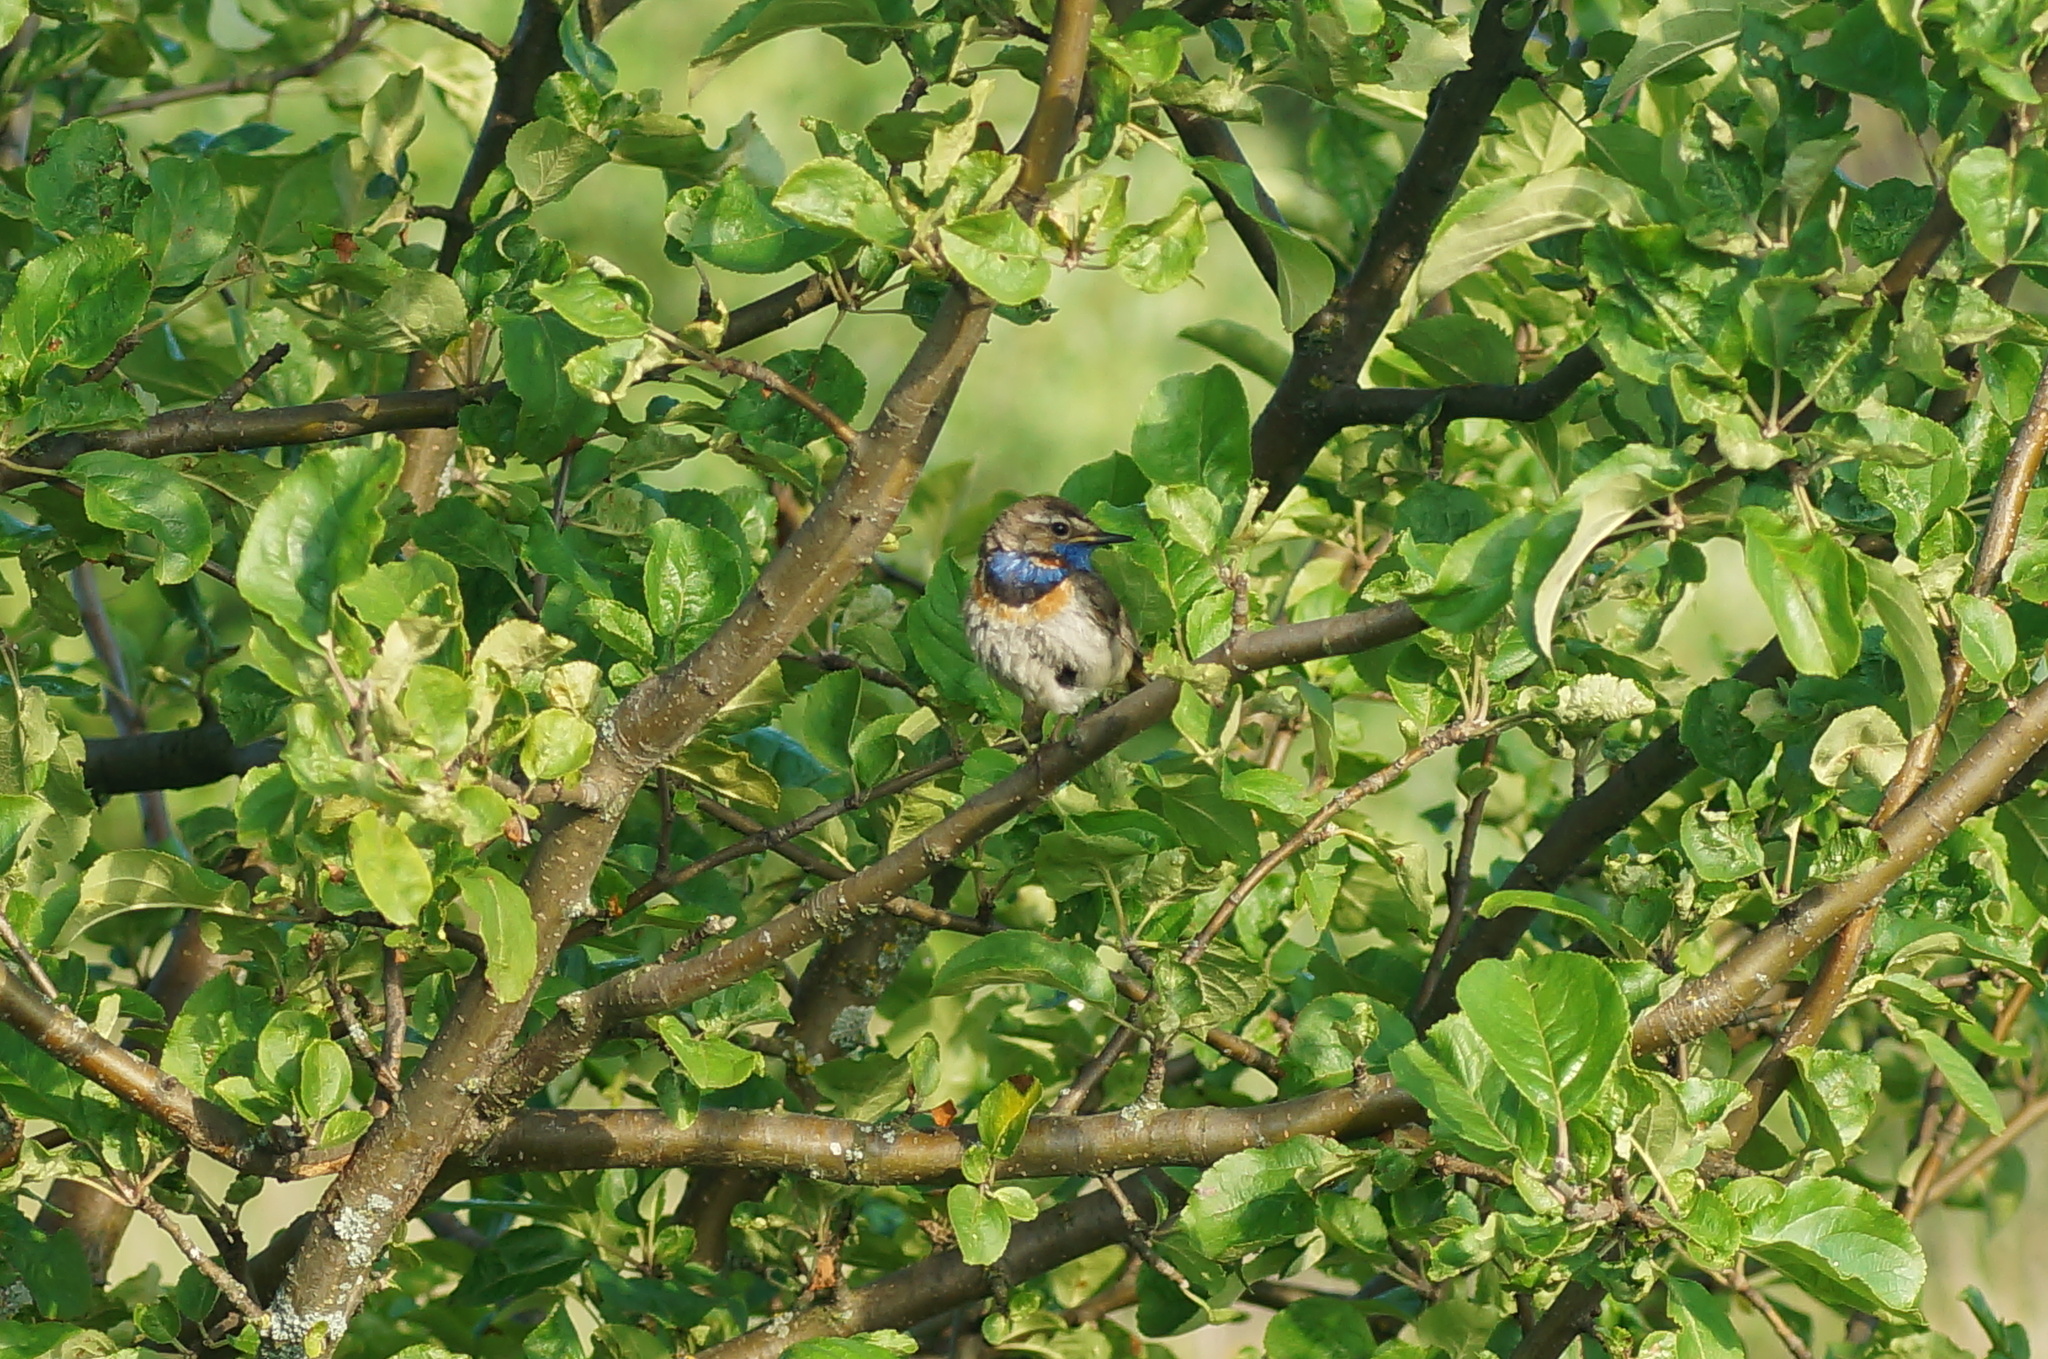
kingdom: Animalia
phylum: Chordata
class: Aves
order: Passeriformes
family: Muscicapidae
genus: Luscinia
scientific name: Luscinia svecica
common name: Bluethroat
